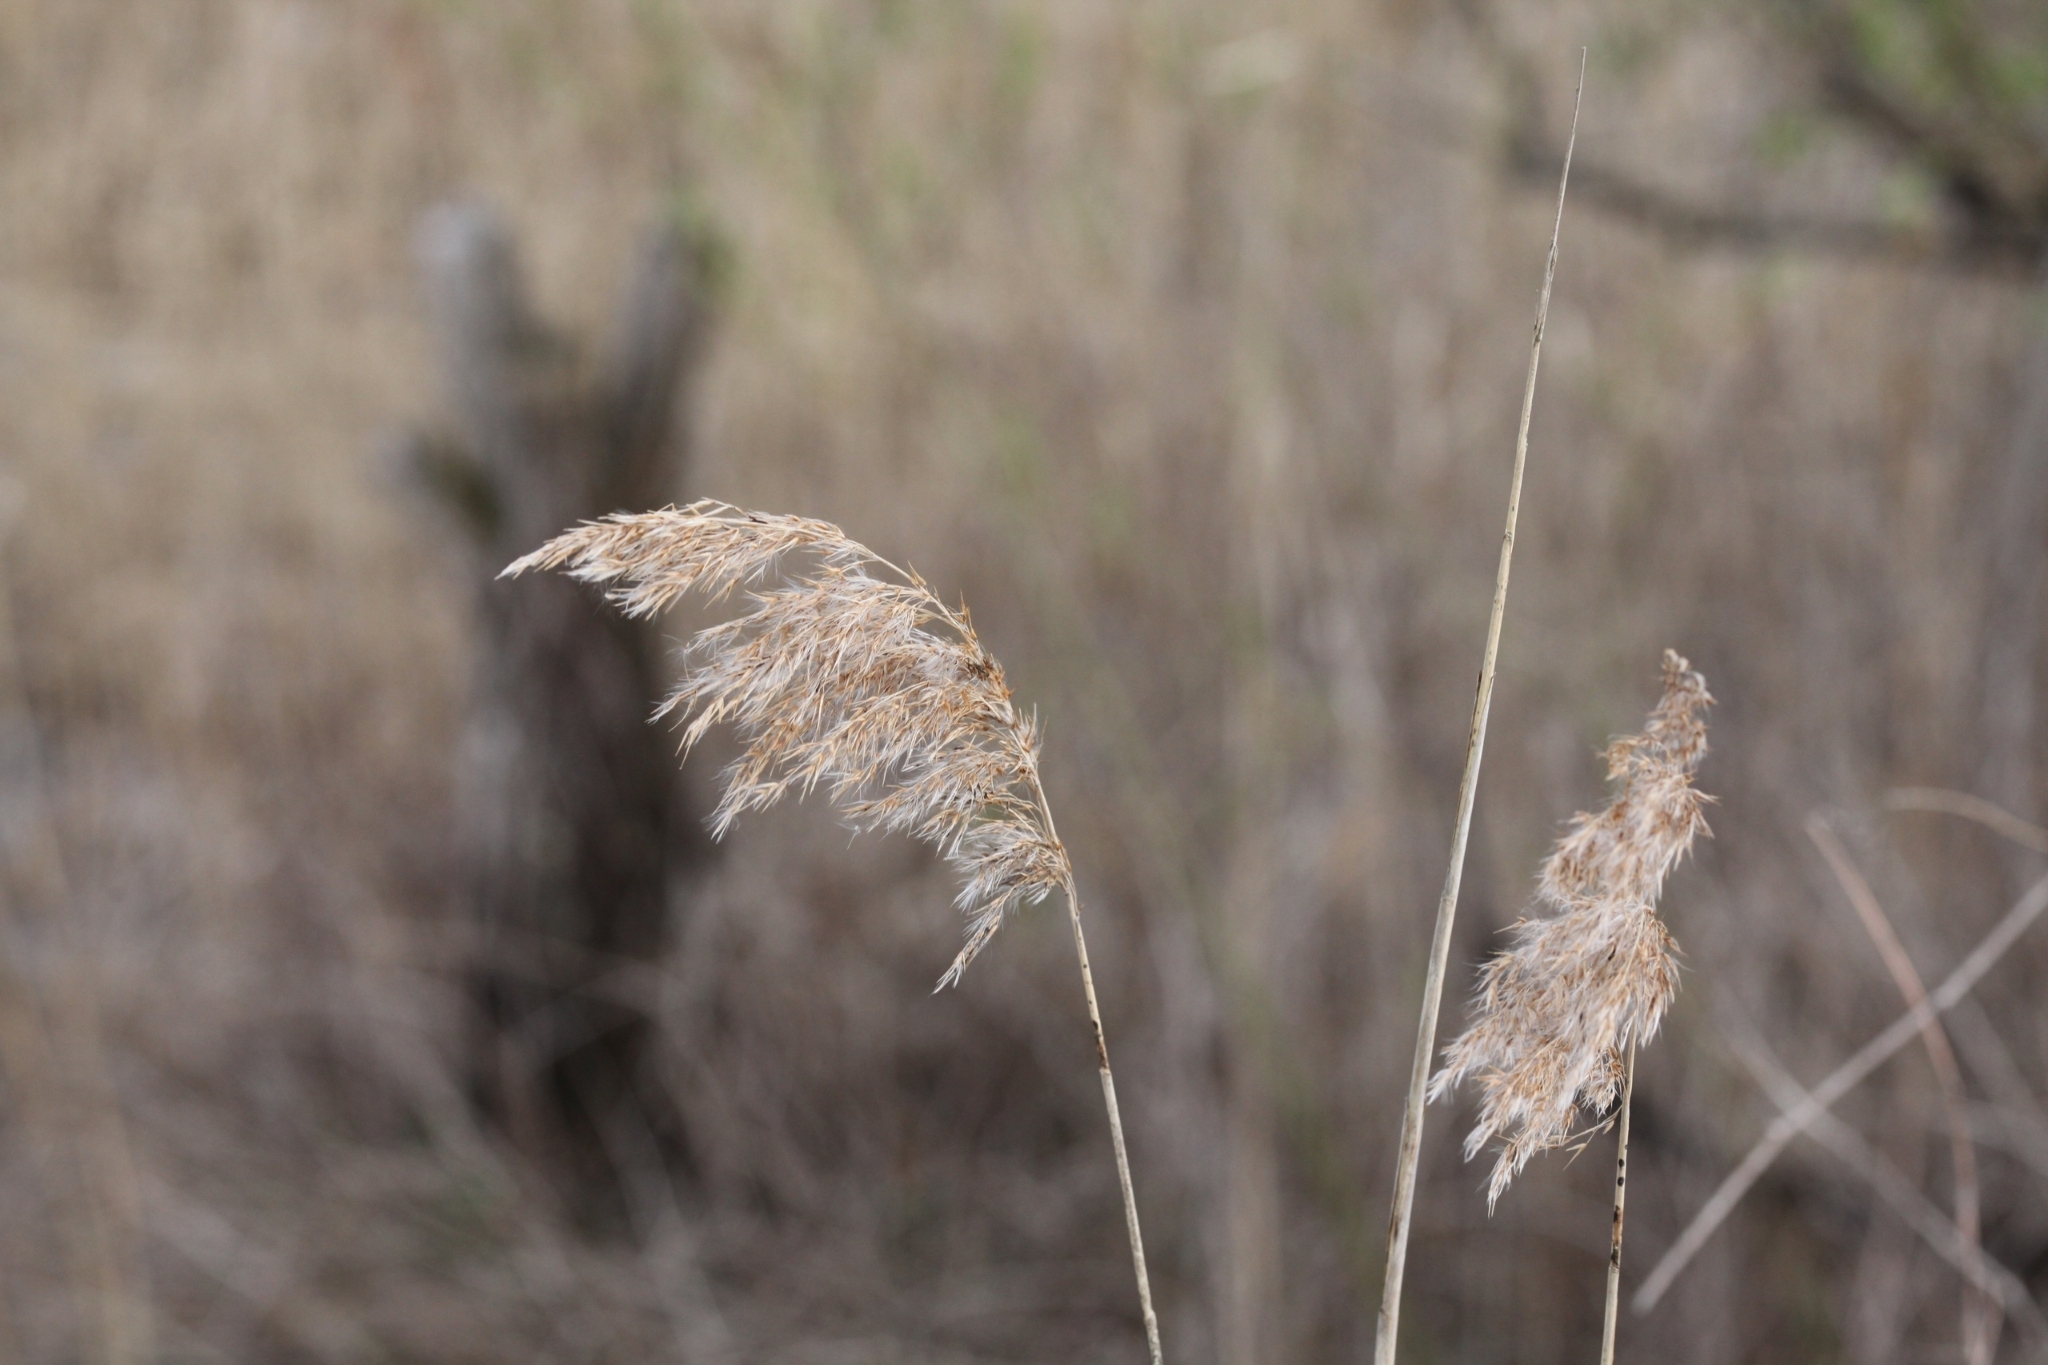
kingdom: Plantae
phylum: Tracheophyta
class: Liliopsida
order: Poales
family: Poaceae
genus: Phragmites
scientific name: Phragmites australis
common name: Common reed
